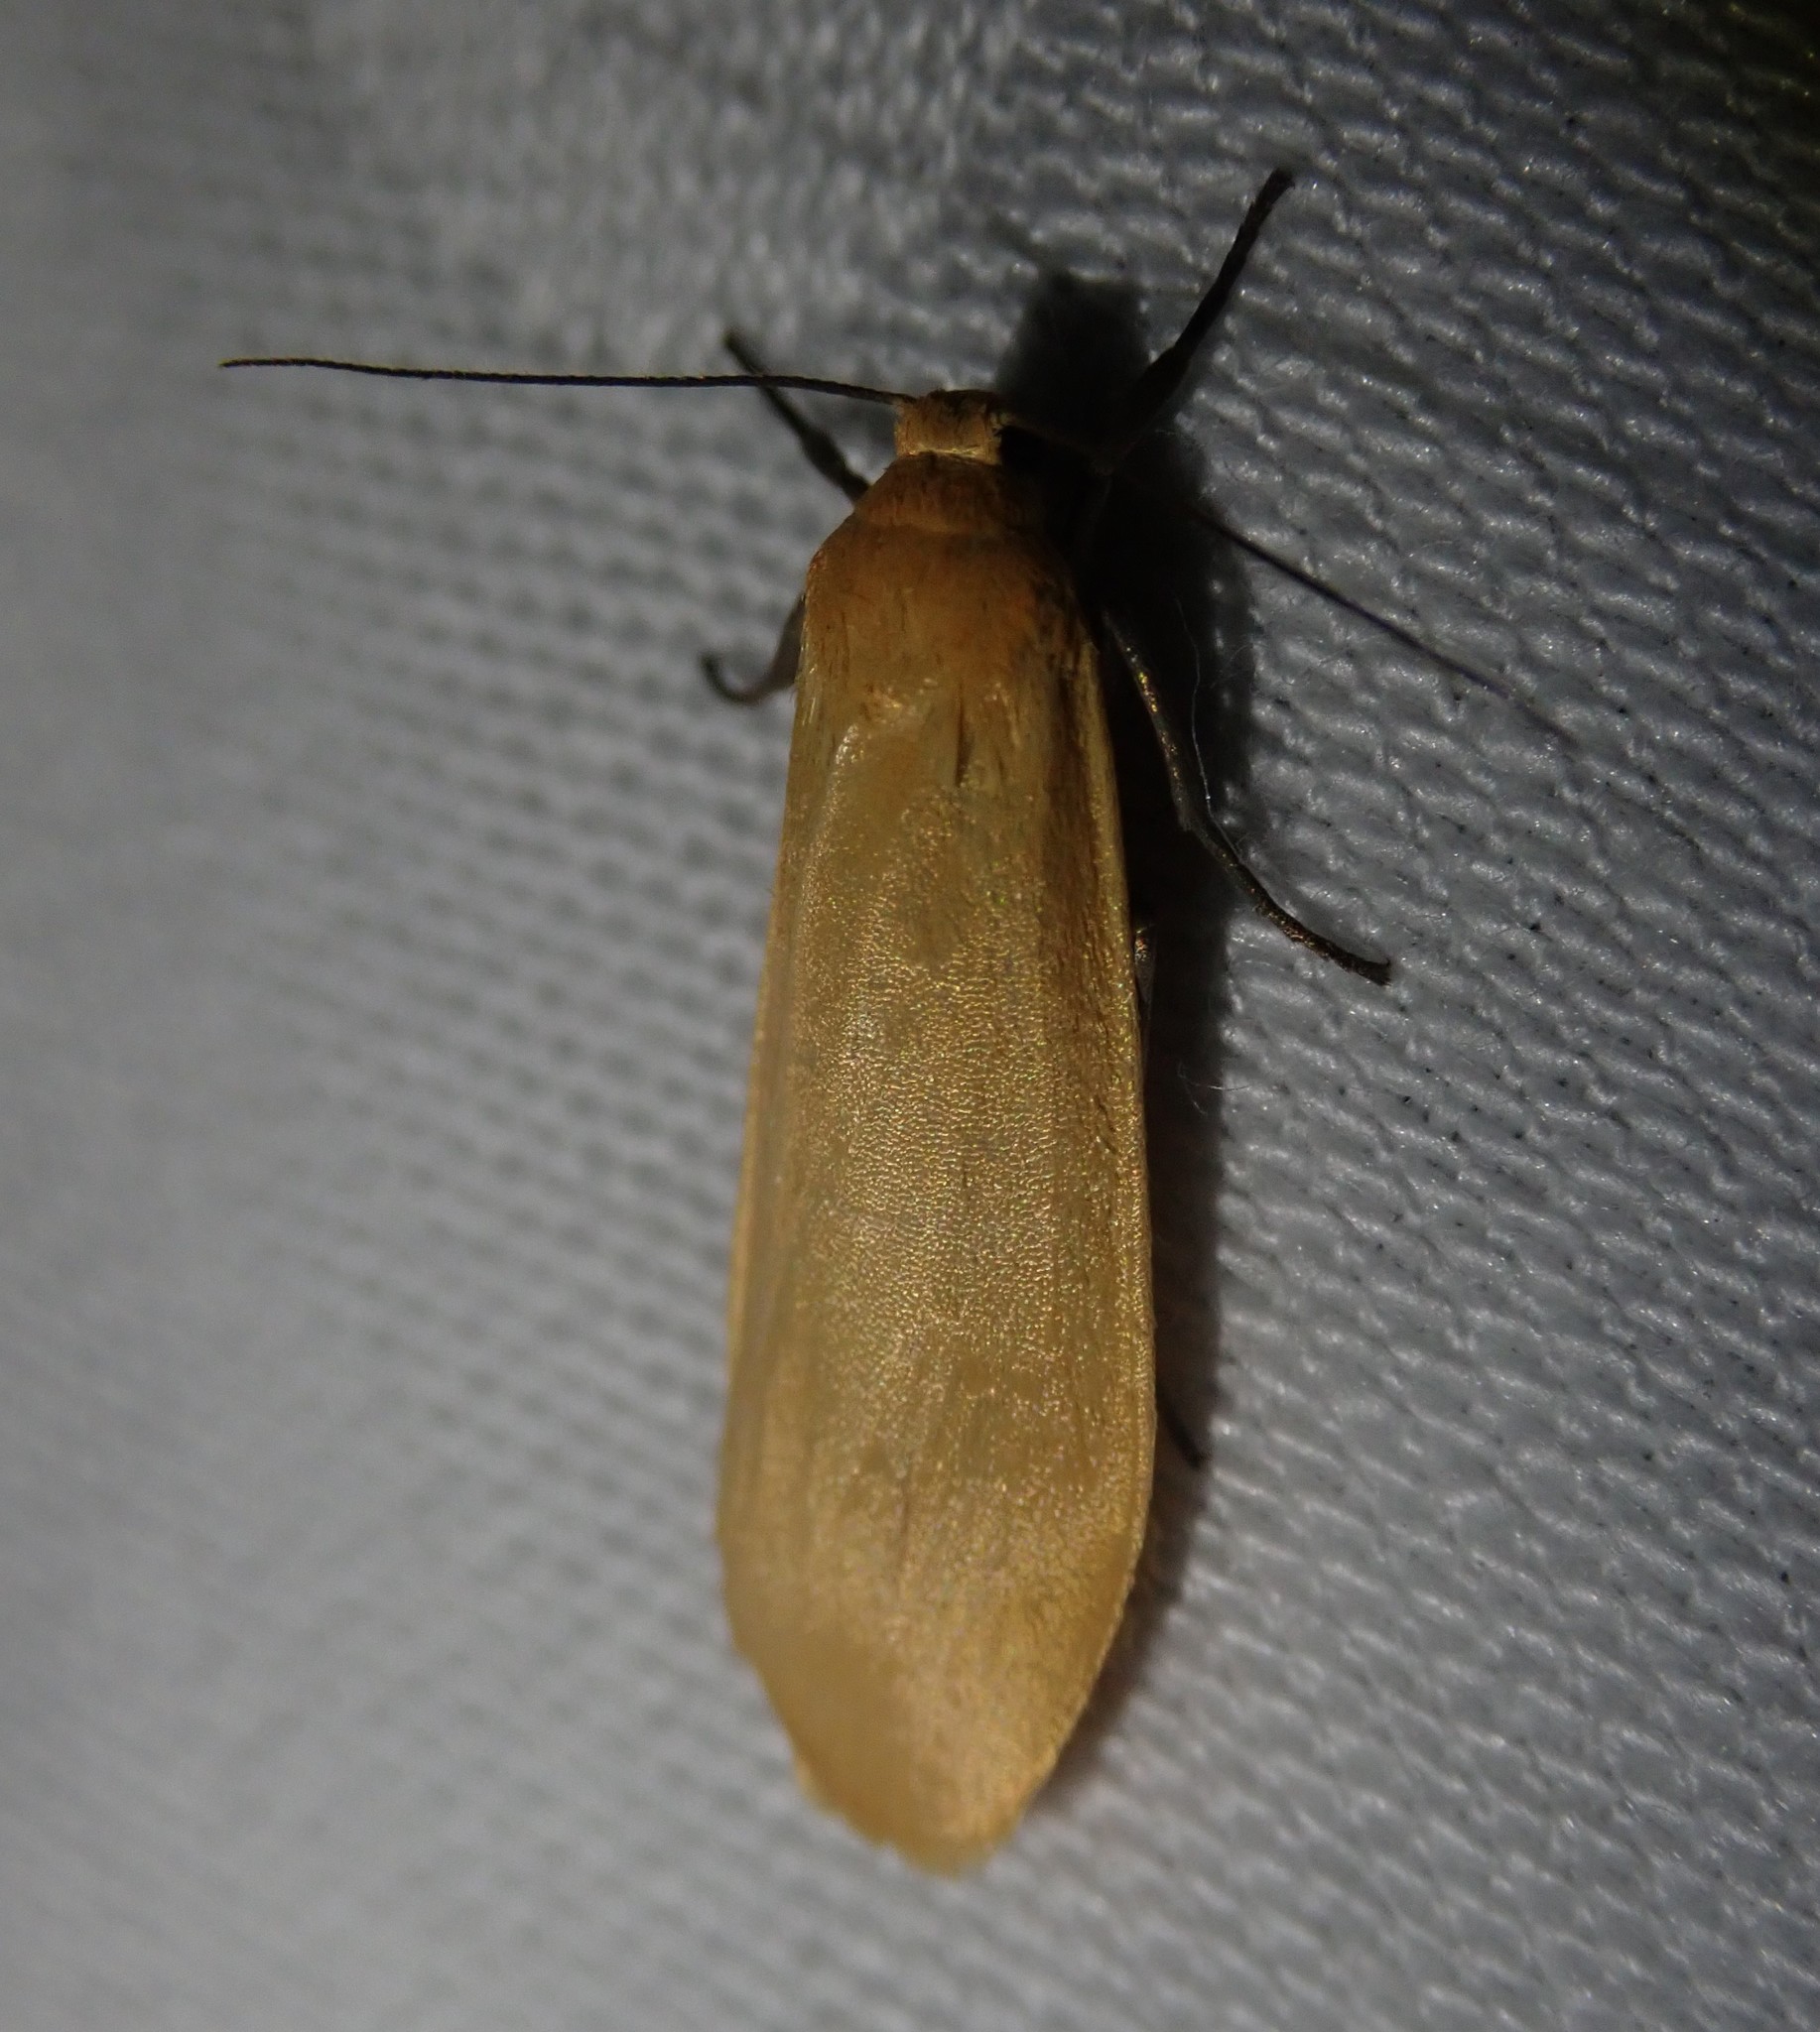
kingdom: Animalia
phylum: Arthropoda
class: Insecta
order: Lepidoptera
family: Erebidae
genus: Wittia
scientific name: Wittia sororcula
